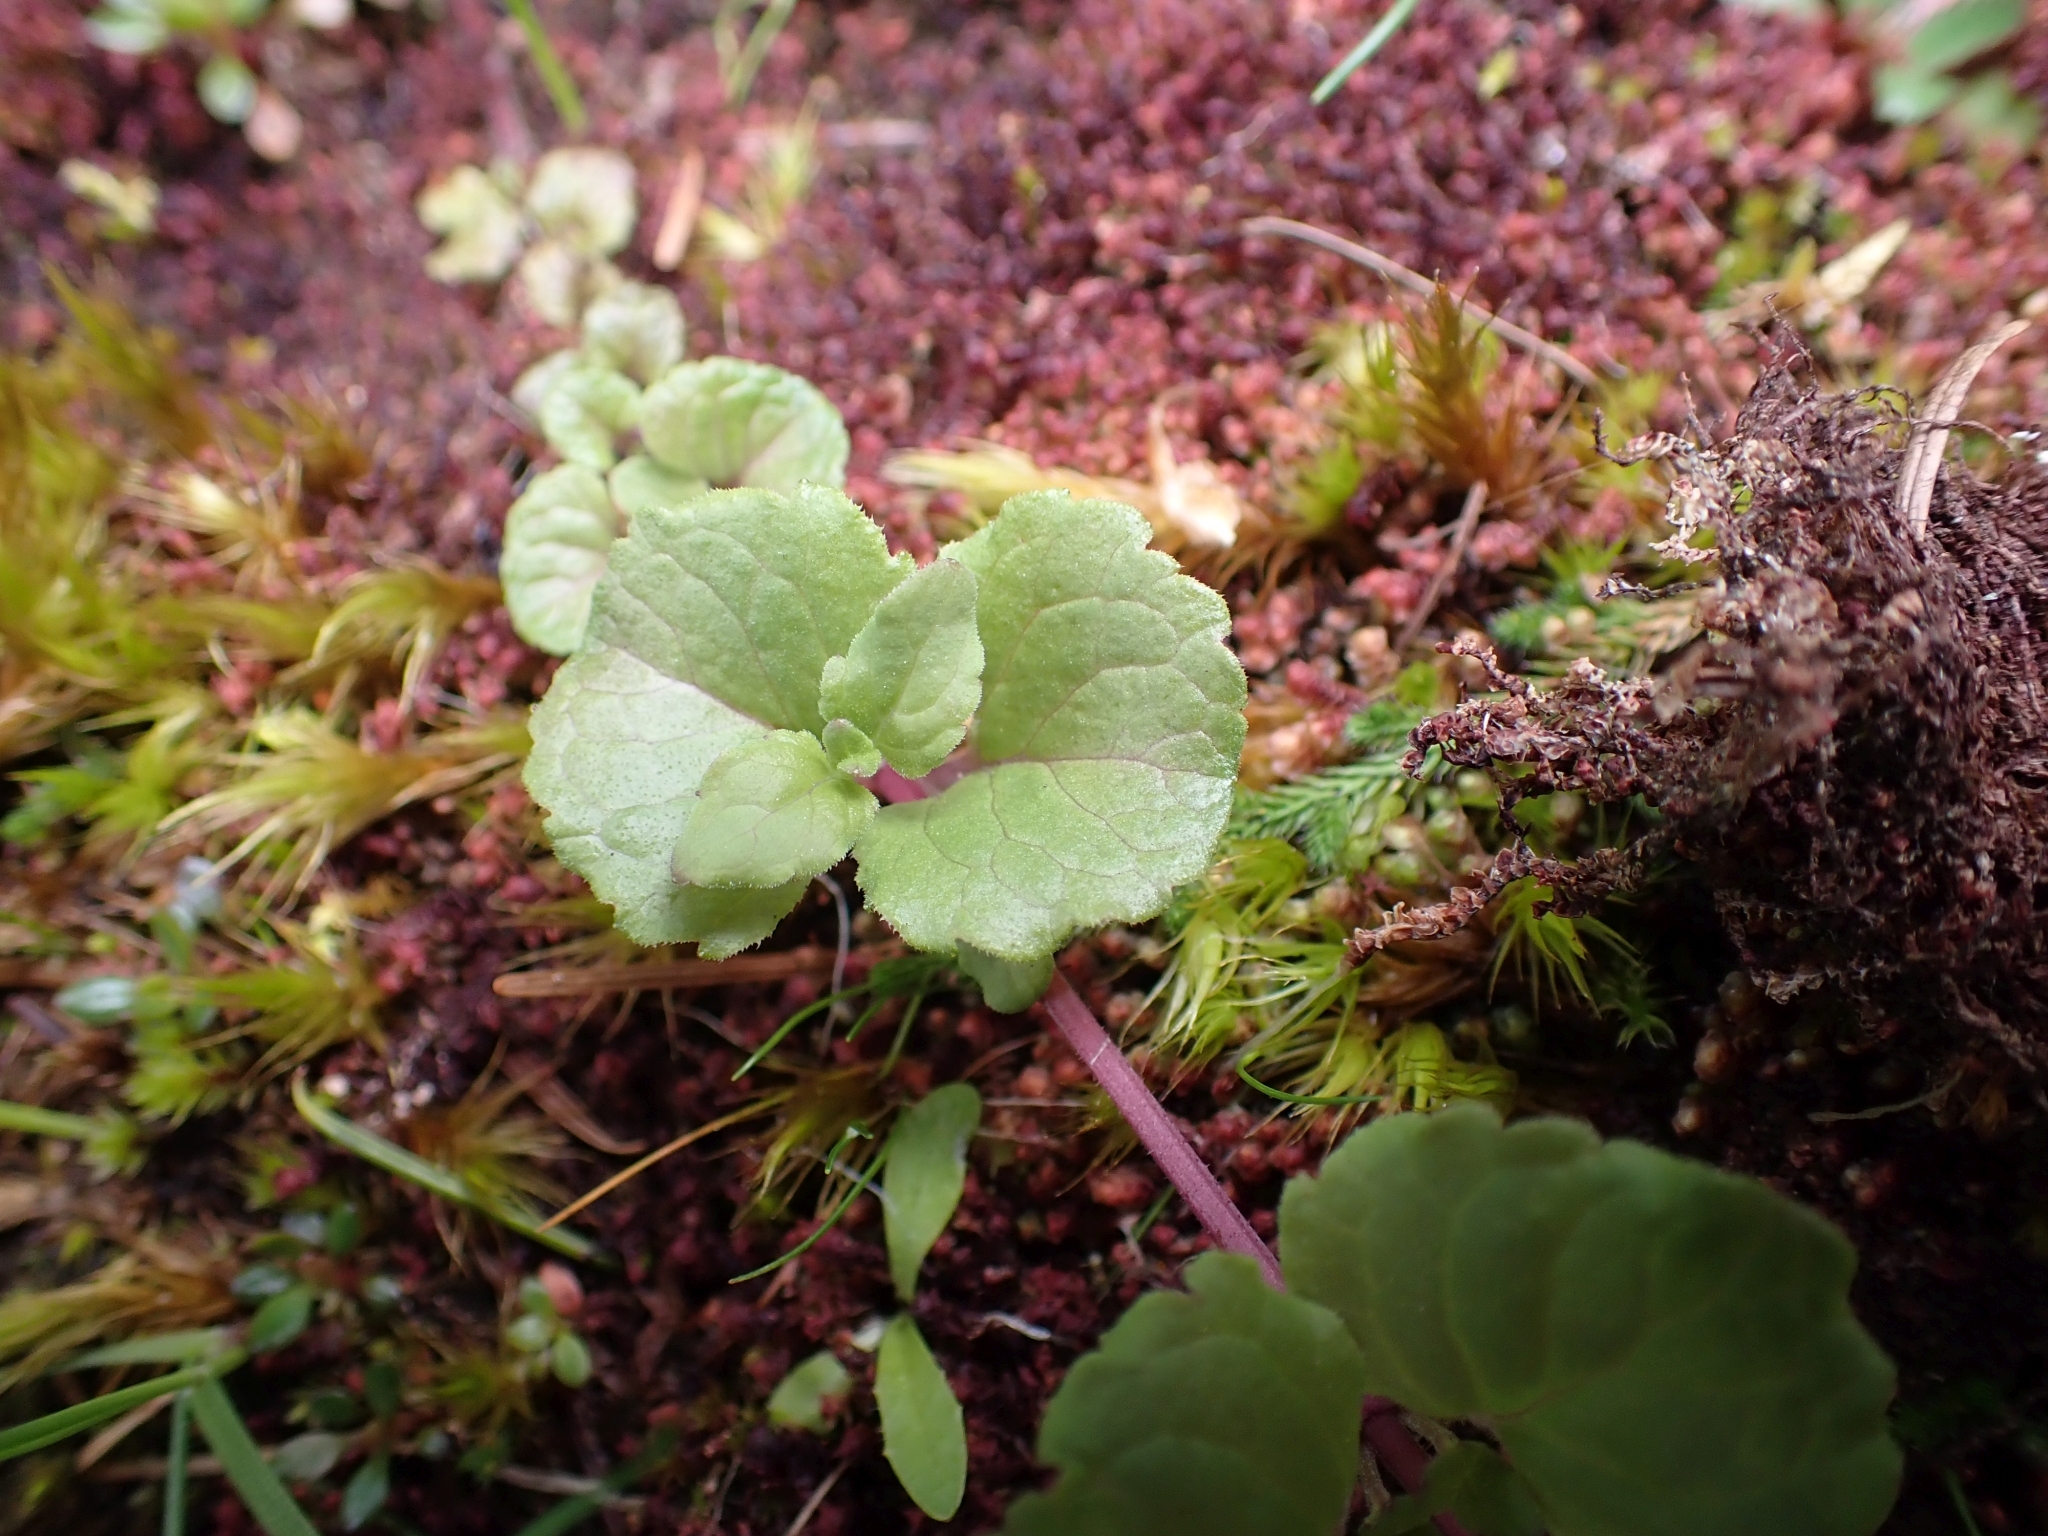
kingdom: Plantae
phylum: Tracheophyta
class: Magnoliopsida
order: Lamiales
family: Lamiaceae
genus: Micromeria
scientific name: Micromeria douglasii
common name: Yerba buena
